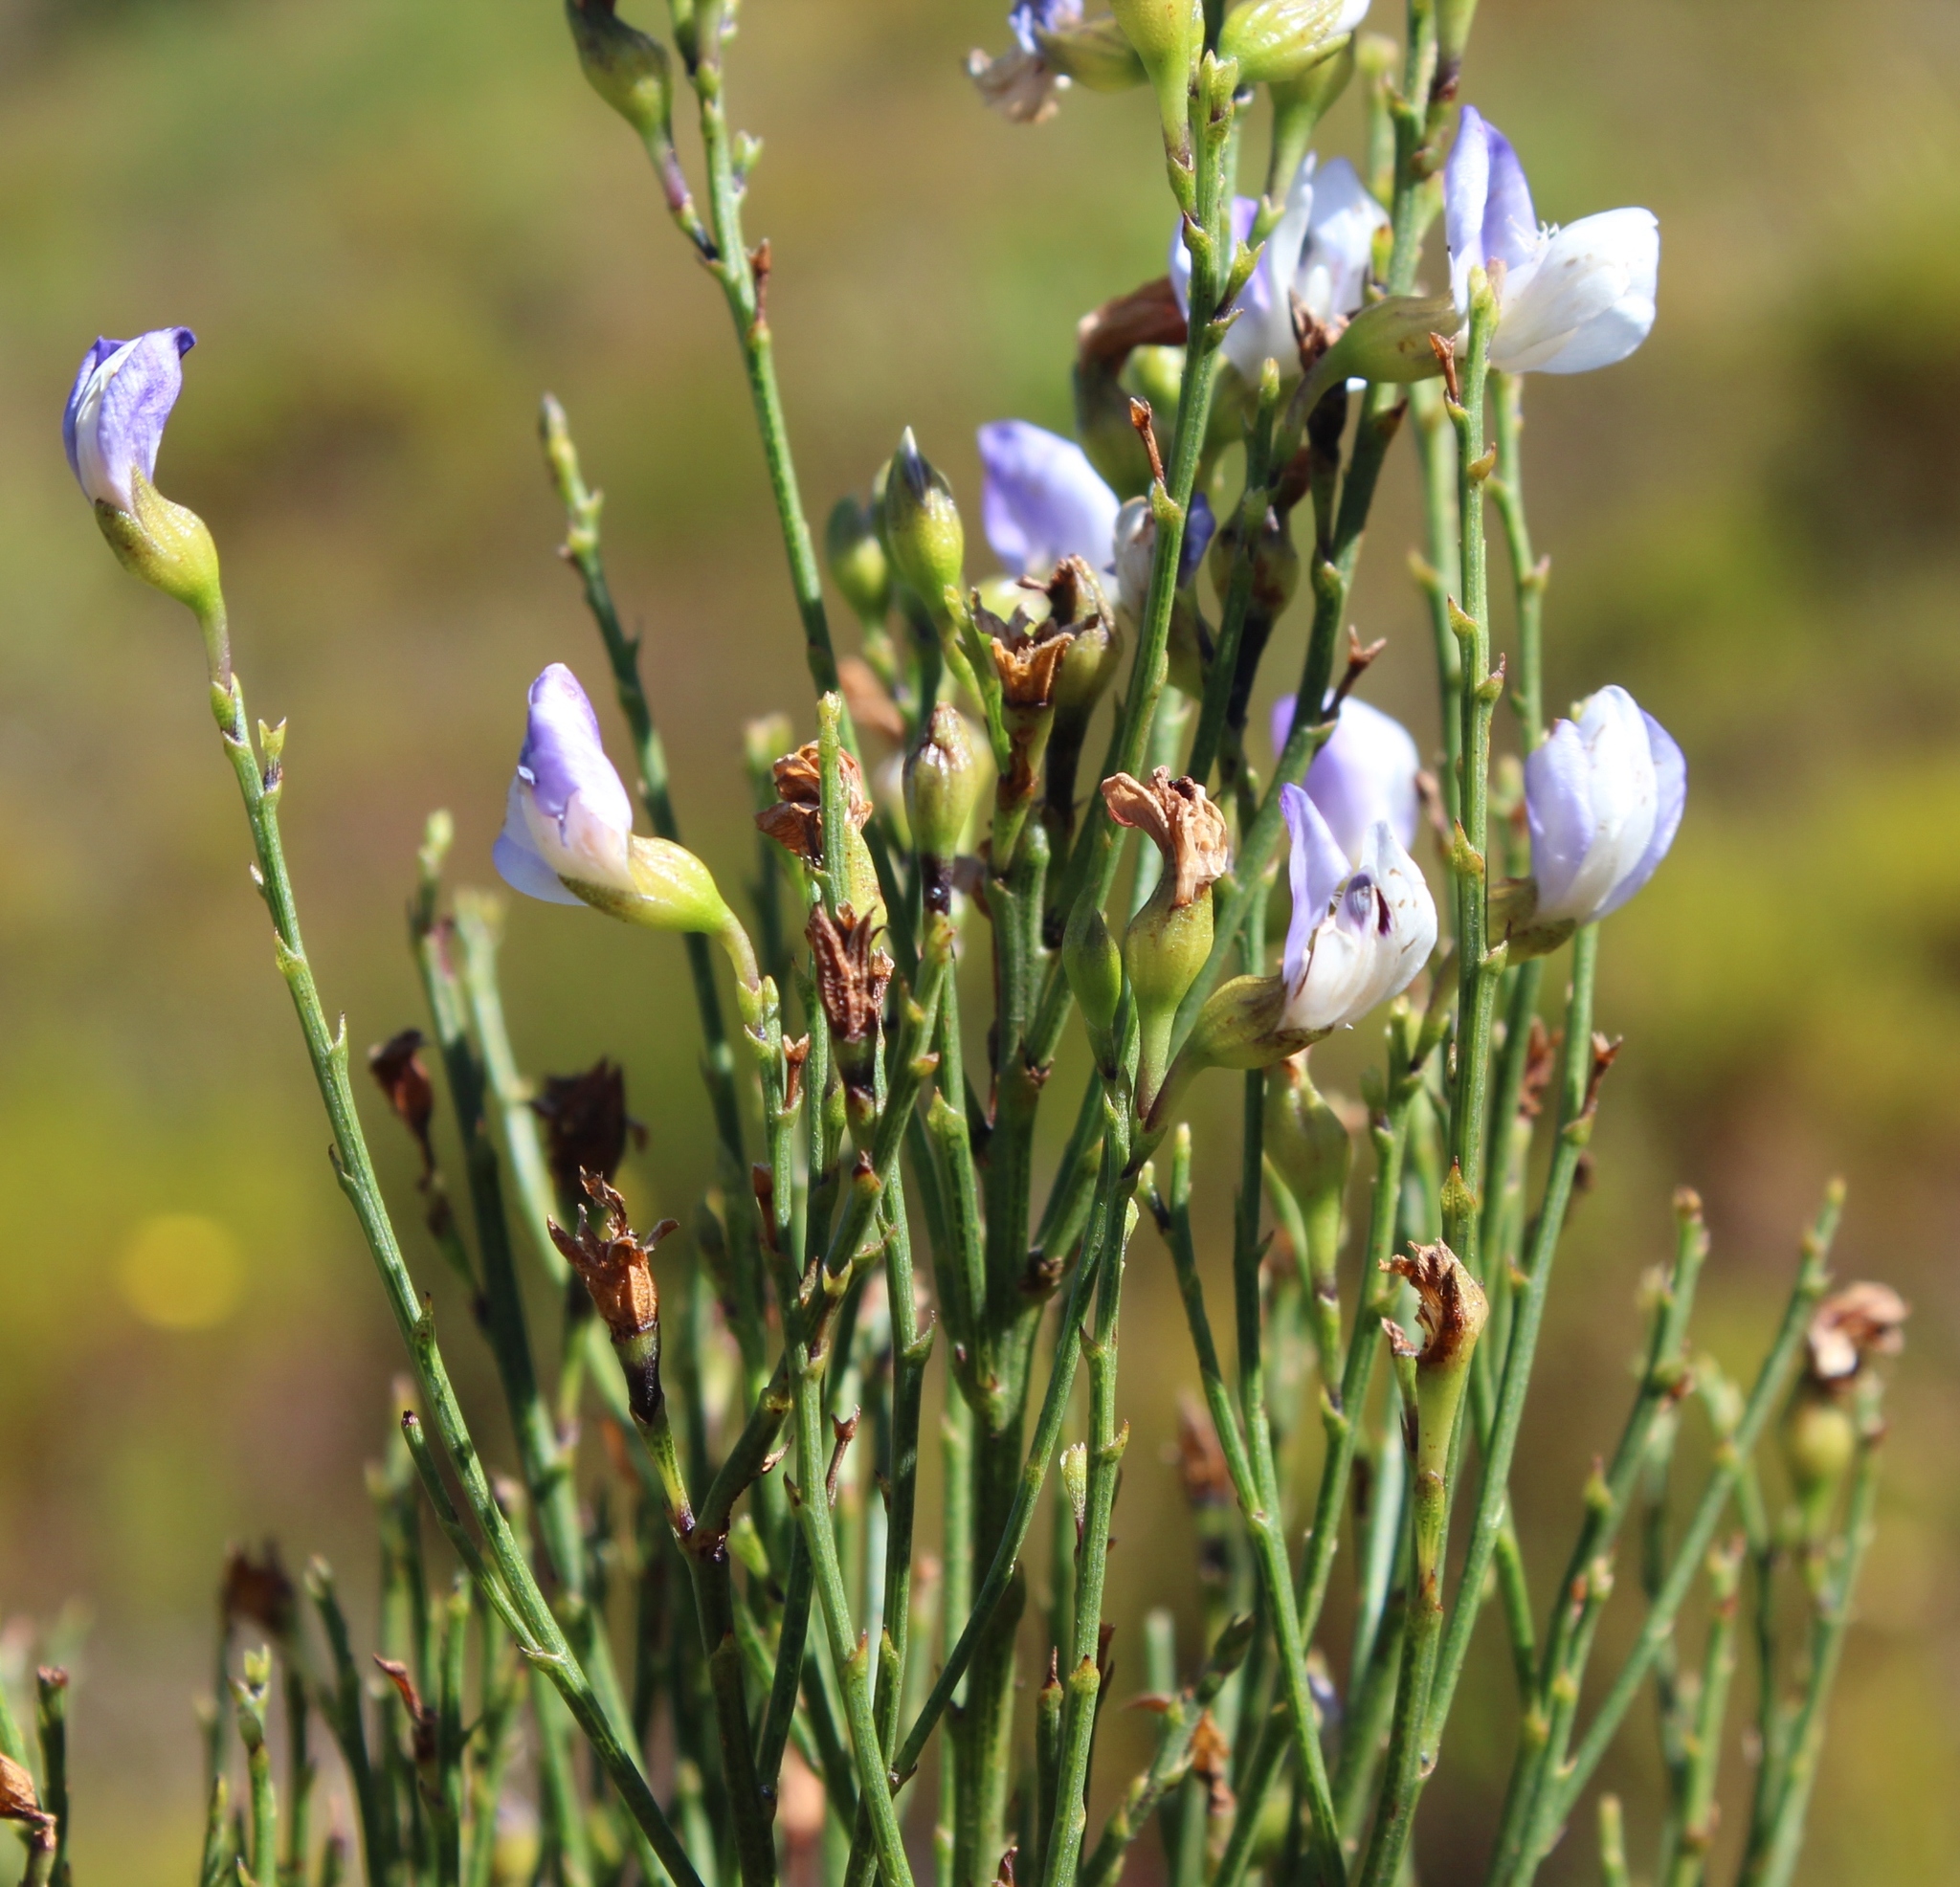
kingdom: Plantae
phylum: Tracheophyta
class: Magnoliopsida
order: Fabales
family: Fabaceae
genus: Psoralea
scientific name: Psoralea usitata
